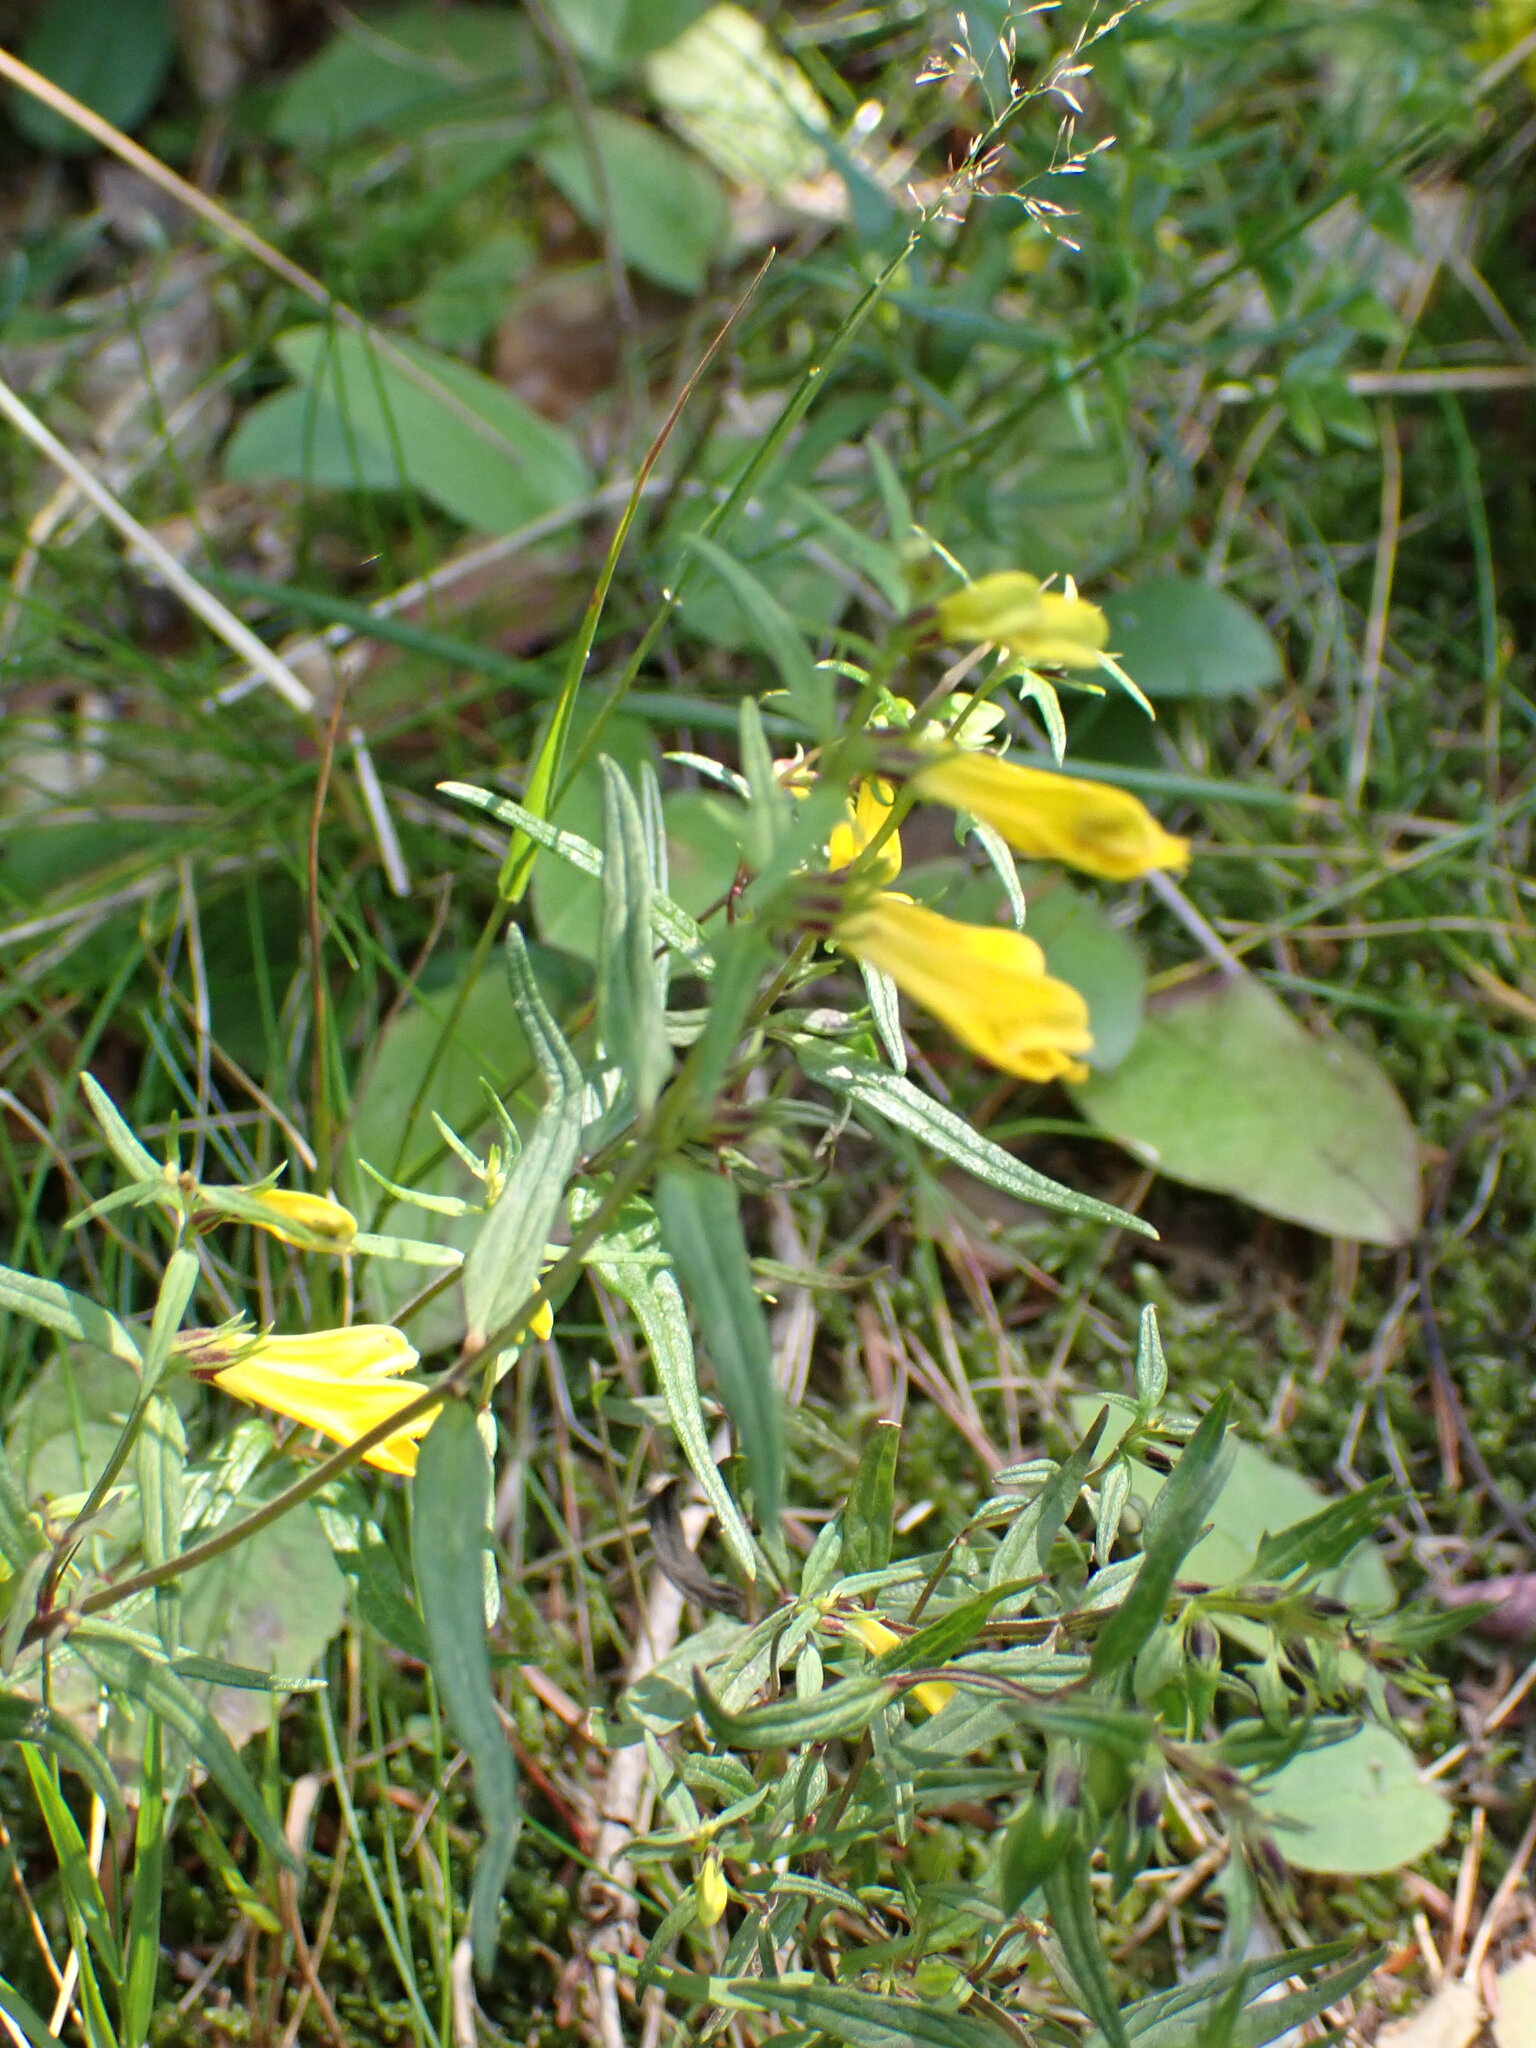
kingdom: Plantae
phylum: Tracheophyta
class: Magnoliopsida
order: Lamiales
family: Orobanchaceae
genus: Melampyrum
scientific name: Melampyrum pratense
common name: Common cow-wheat
